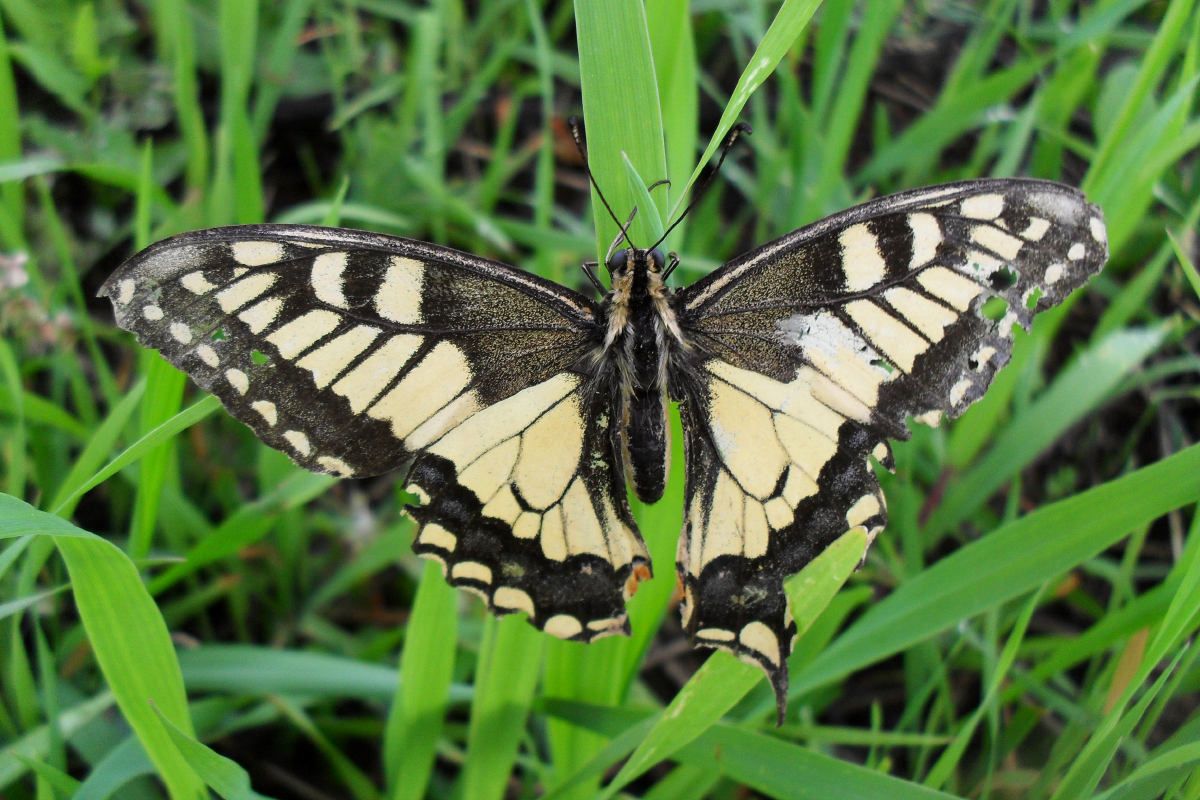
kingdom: Animalia
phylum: Arthropoda
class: Insecta
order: Lepidoptera
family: Papilionidae
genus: Papilio
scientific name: Papilio machaon
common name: Swallowtail
